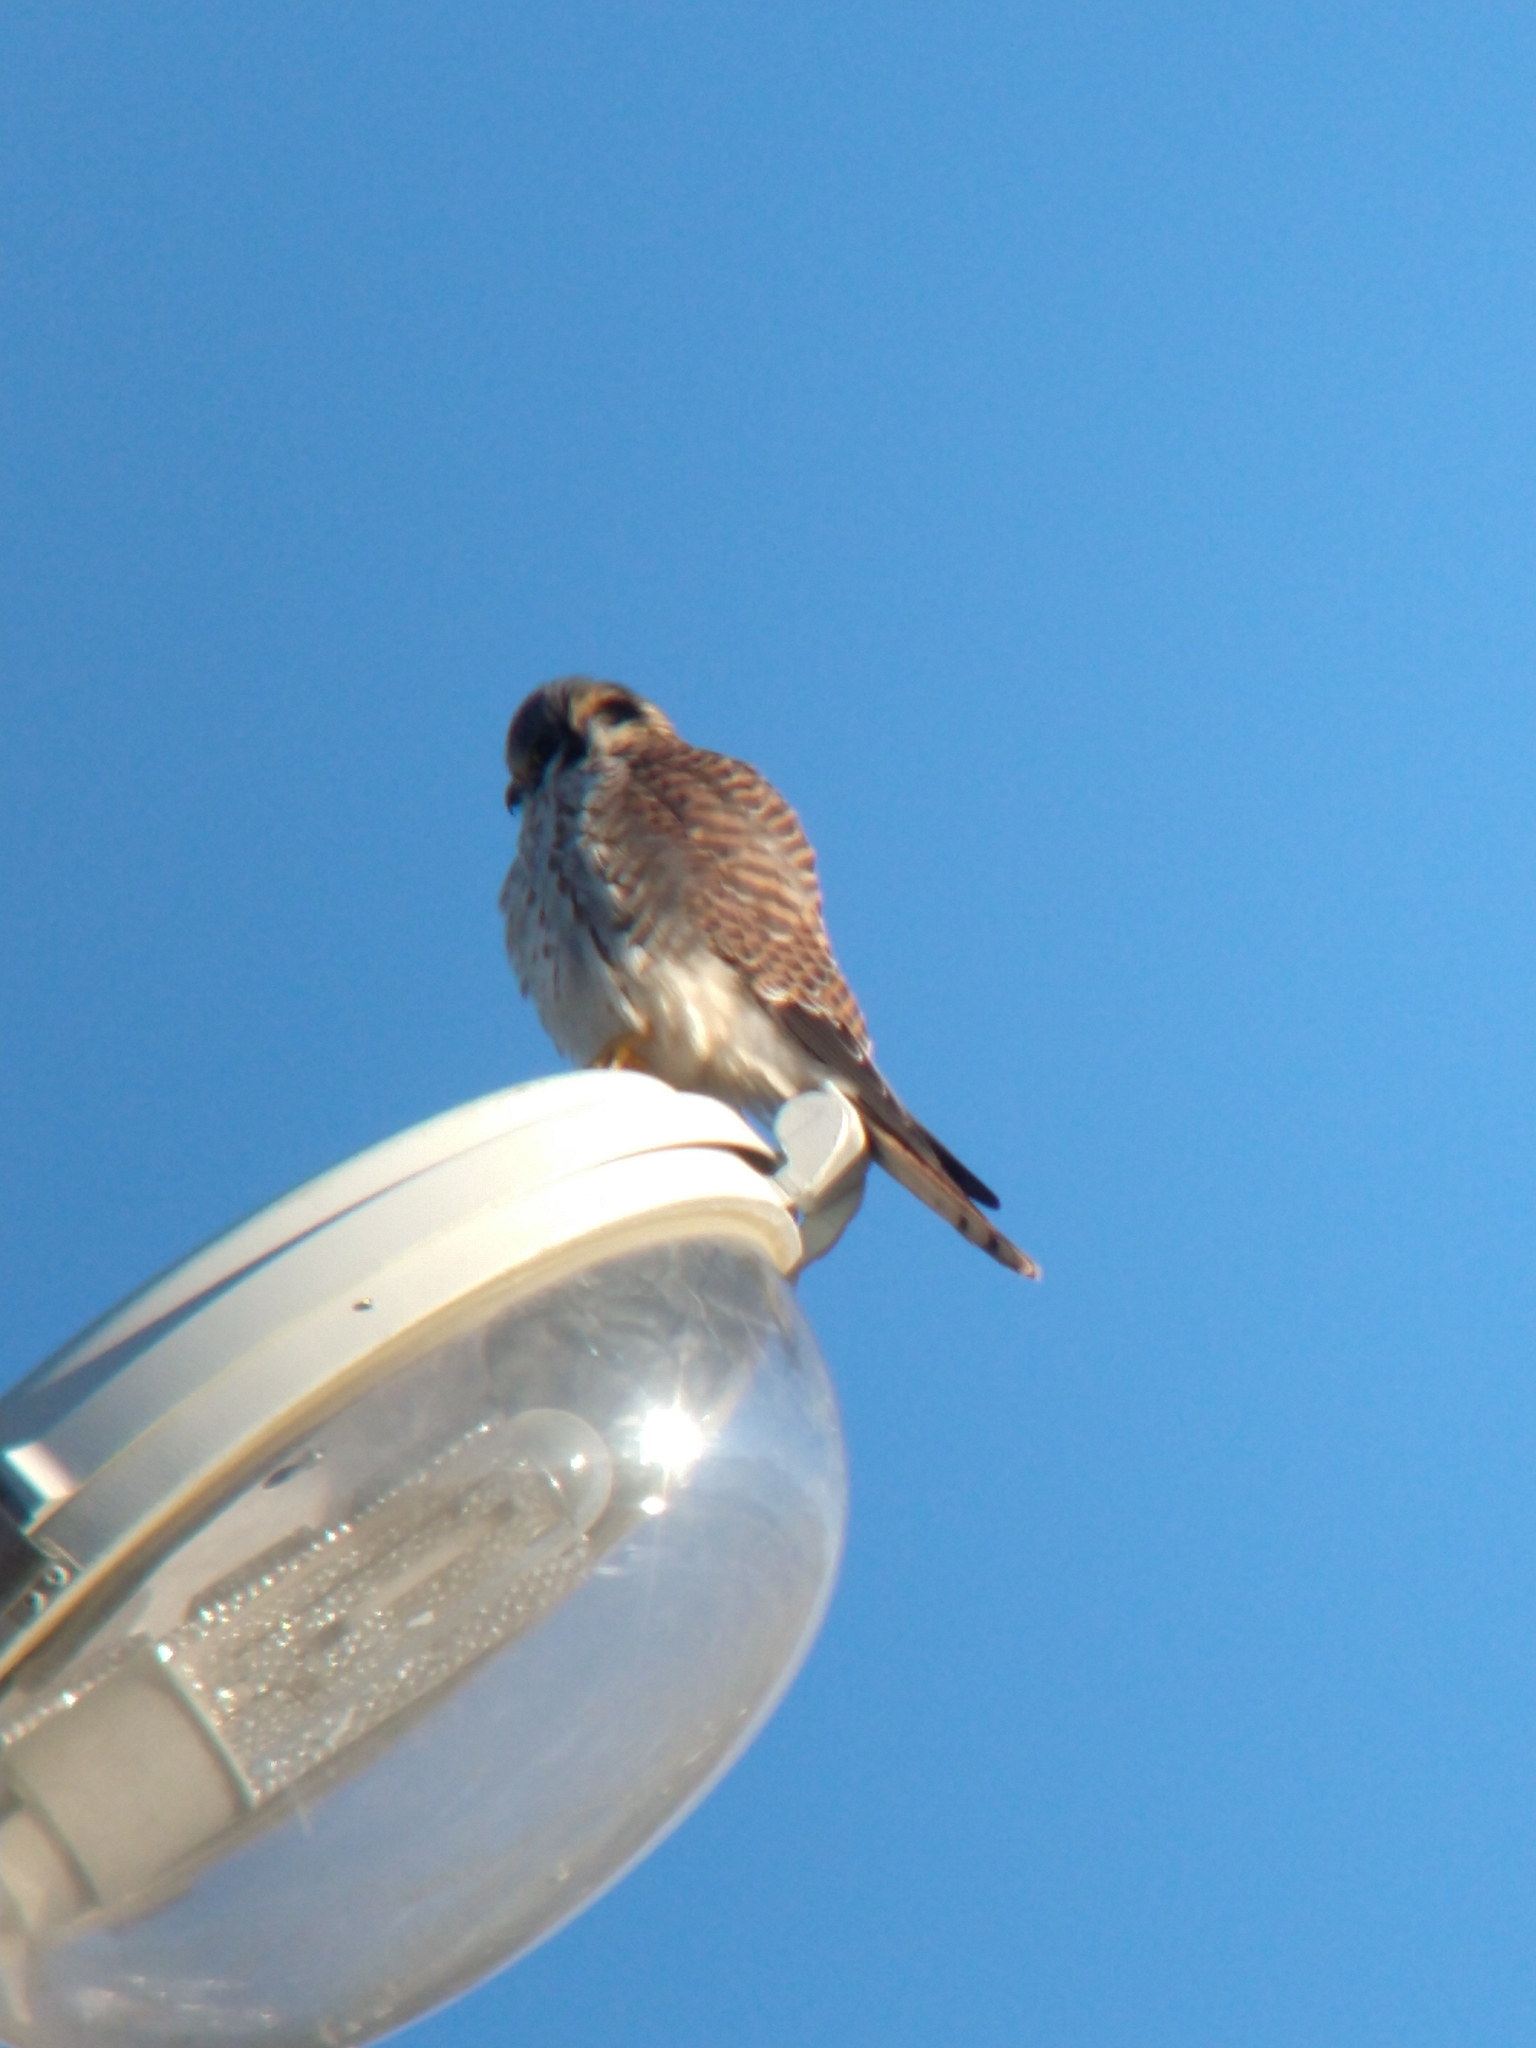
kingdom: Animalia
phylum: Chordata
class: Aves
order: Falconiformes
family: Falconidae
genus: Falco
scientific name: Falco sparverius
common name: American kestrel
